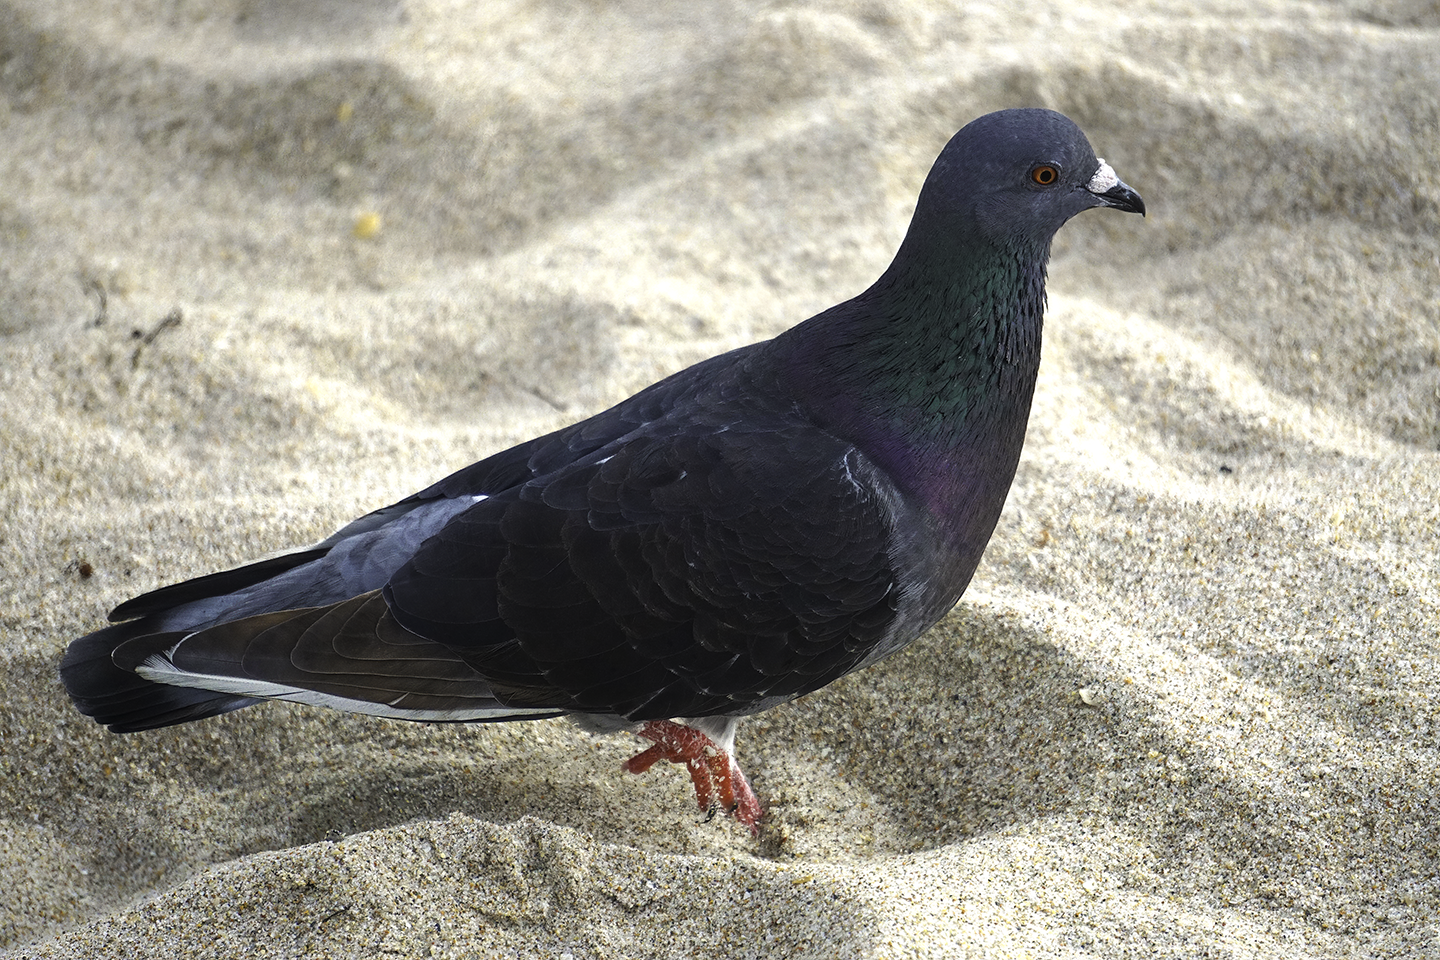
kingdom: Animalia
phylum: Chordata
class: Aves
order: Columbiformes
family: Columbidae
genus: Columba
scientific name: Columba livia
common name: Rock pigeon
